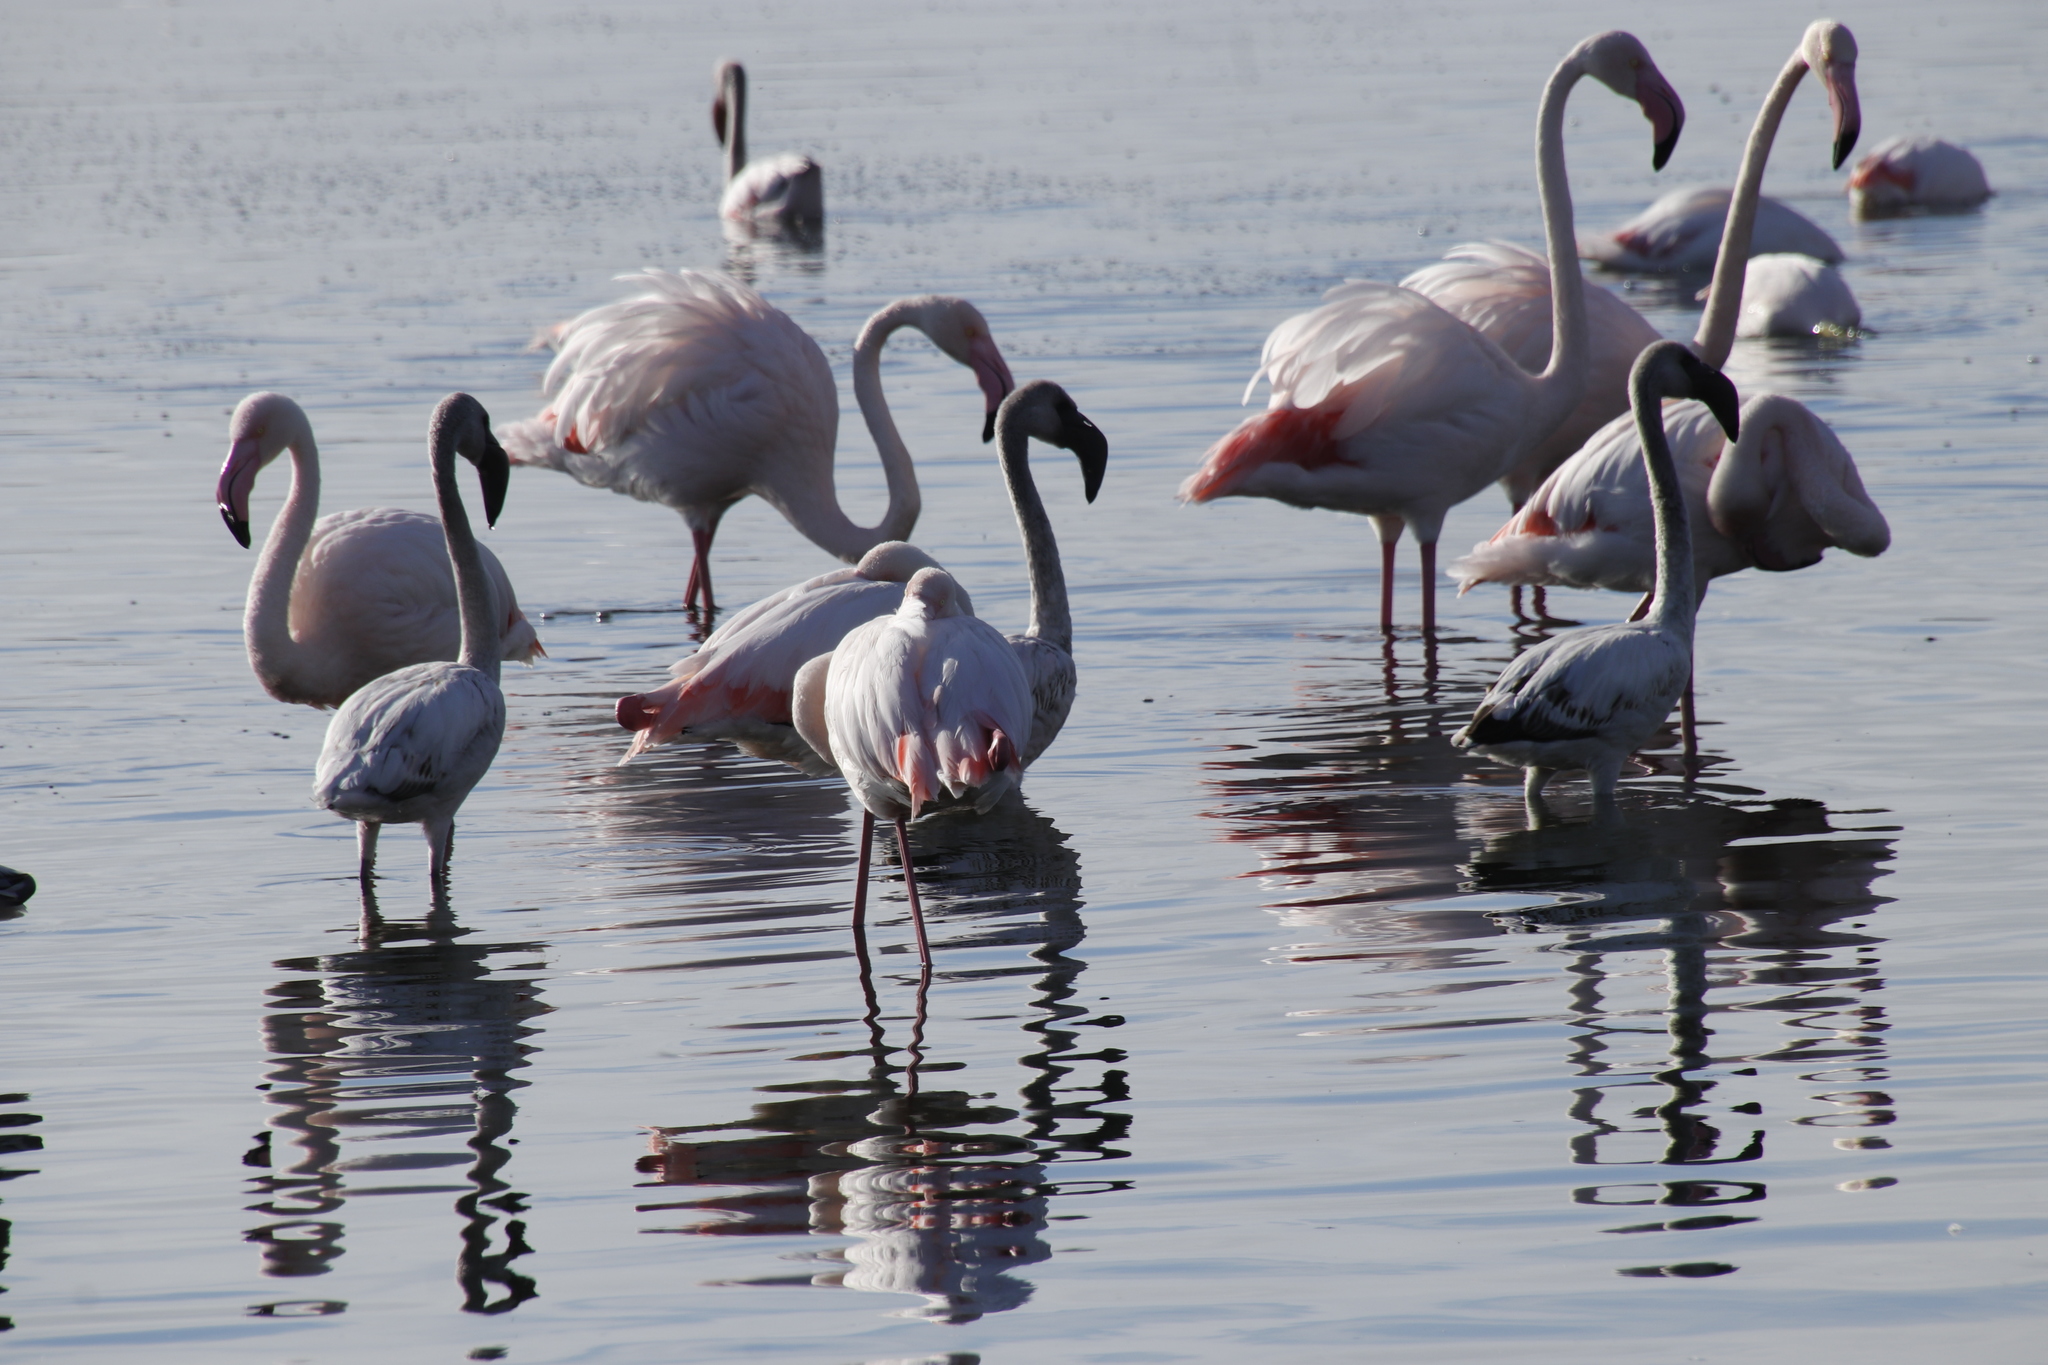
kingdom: Animalia
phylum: Chordata
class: Aves
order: Phoenicopteriformes
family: Phoenicopteridae
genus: Phoenicopterus
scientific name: Phoenicopterus roseus
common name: Greater flamingo
